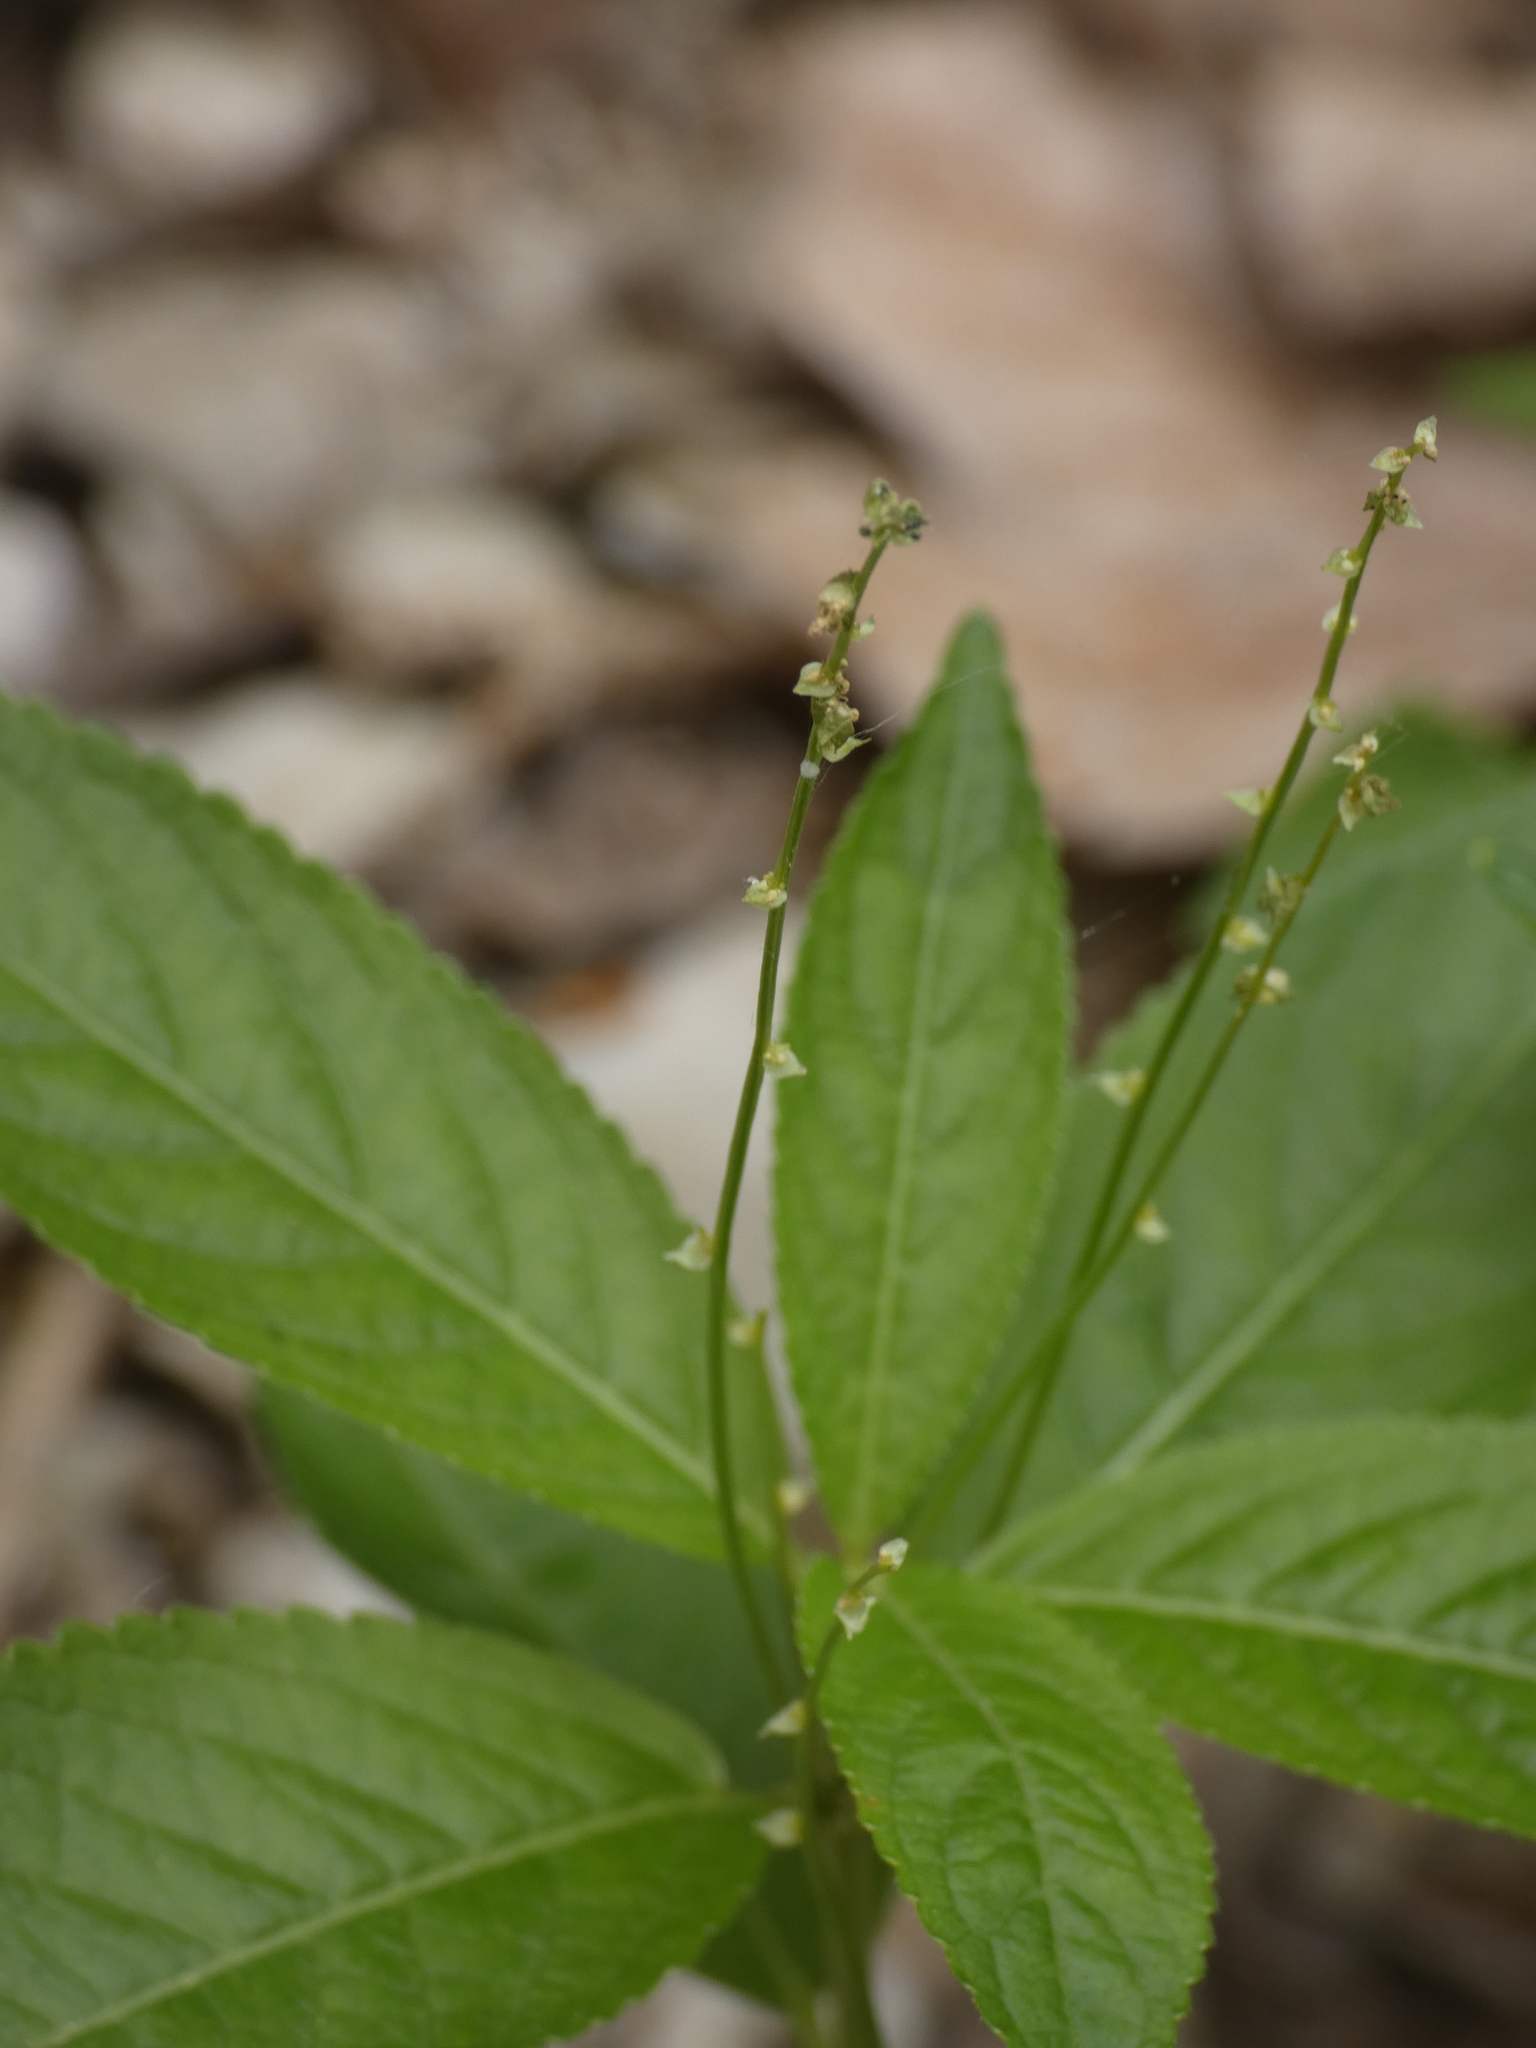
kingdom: Plantae
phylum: Tracheophyta
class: Magnoliopsida
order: Malpighiales
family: Euphorbiaceae
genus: Mercurialis
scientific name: Mercurialis perennis
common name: Dog mercury
